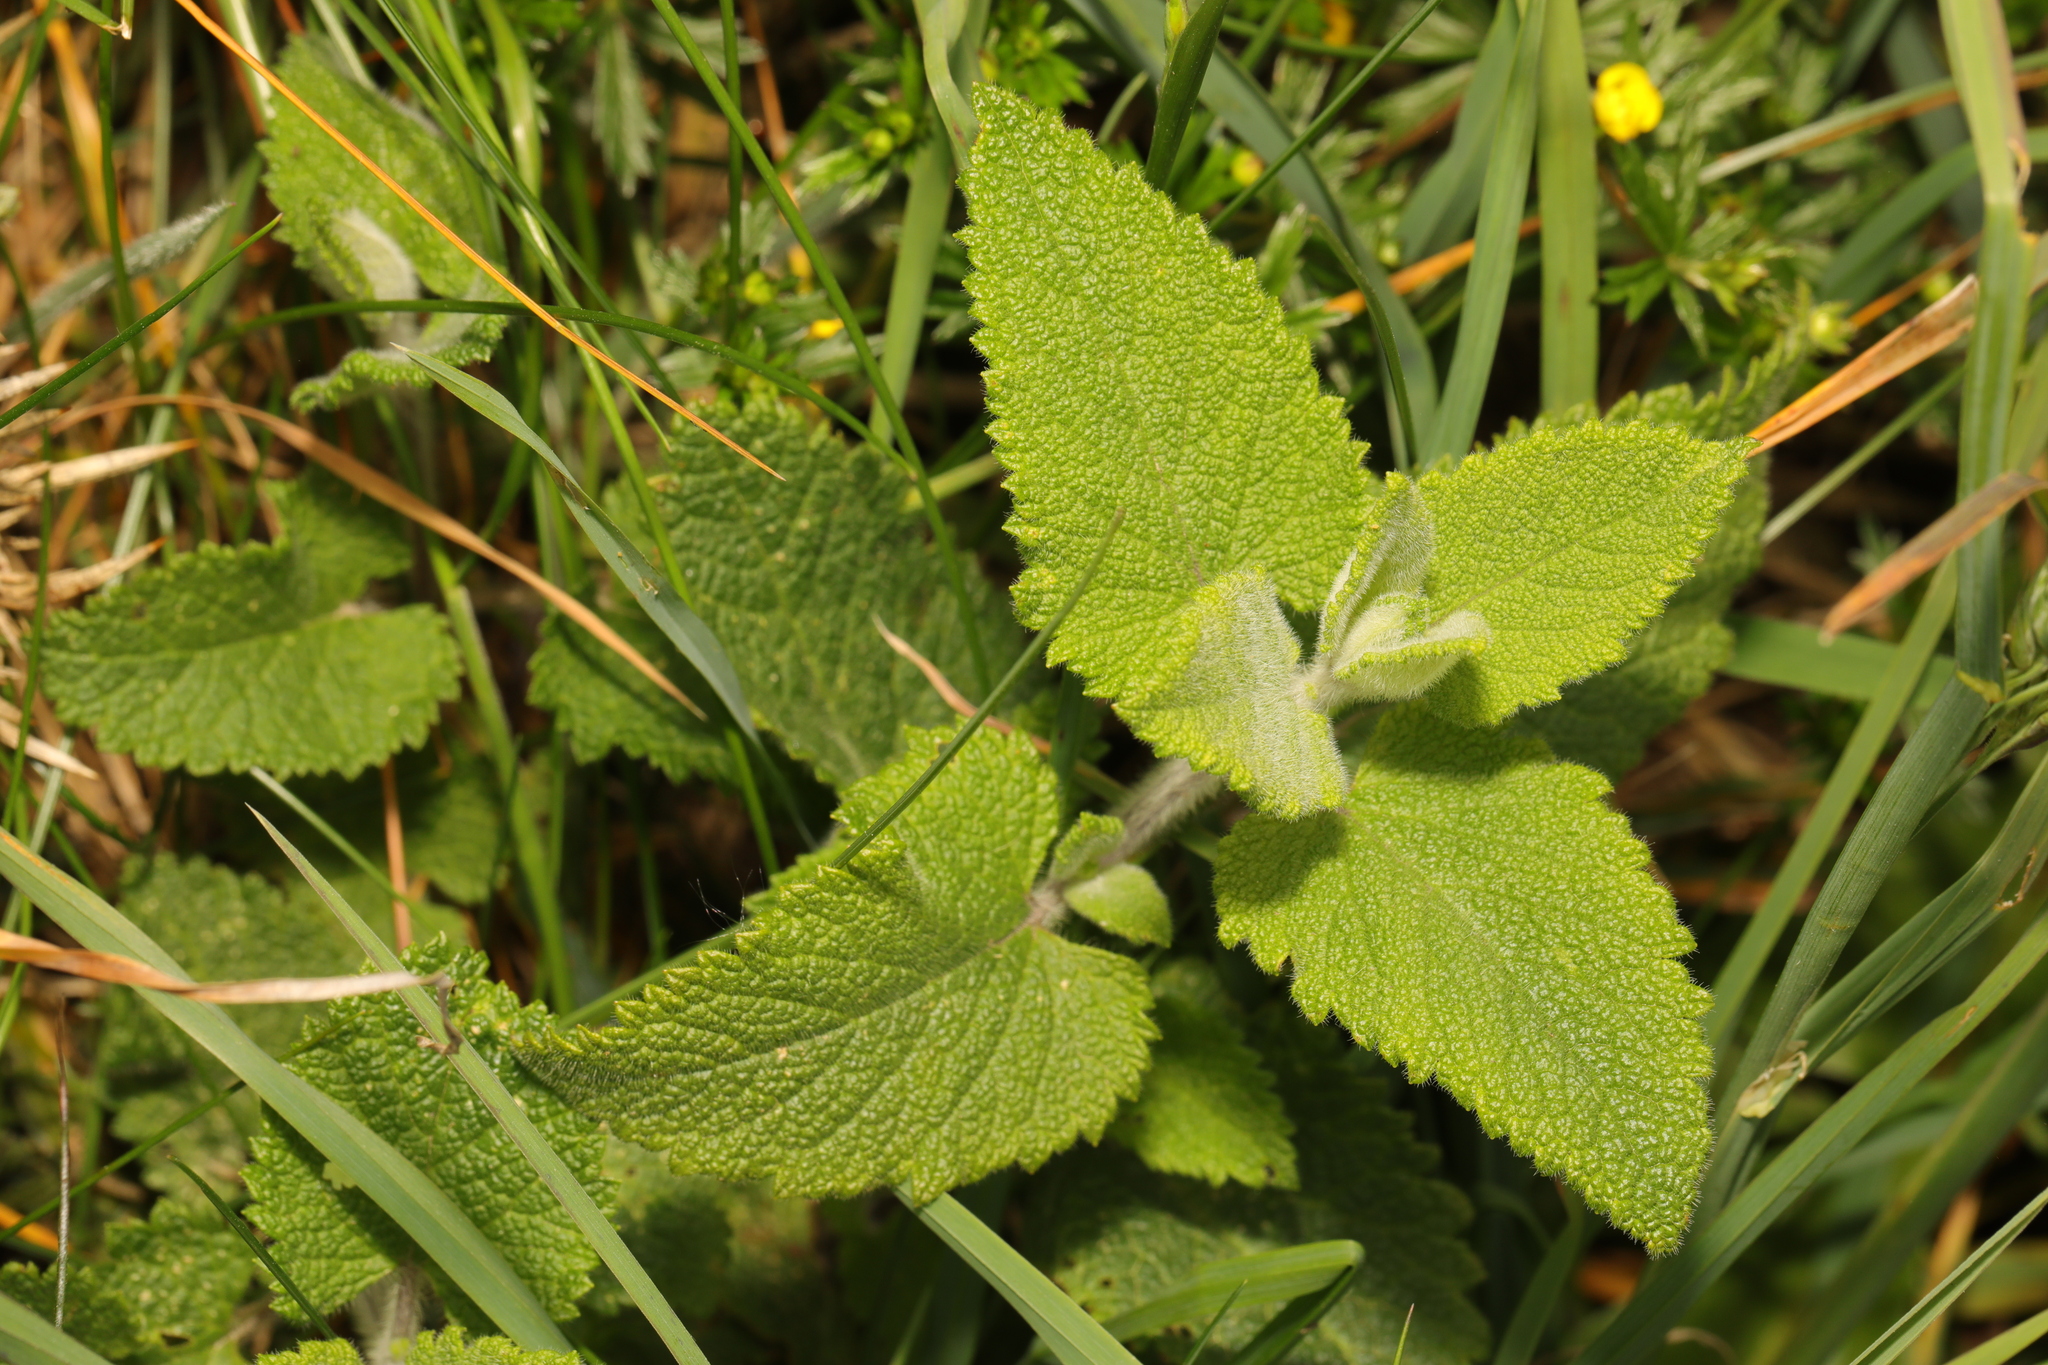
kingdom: Plantae
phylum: Tracheophyta
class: Magnoliopsida
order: Lamiales
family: Lamiaceae
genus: Teucrium
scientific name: Teucrium scorodonia
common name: Woodland germander
